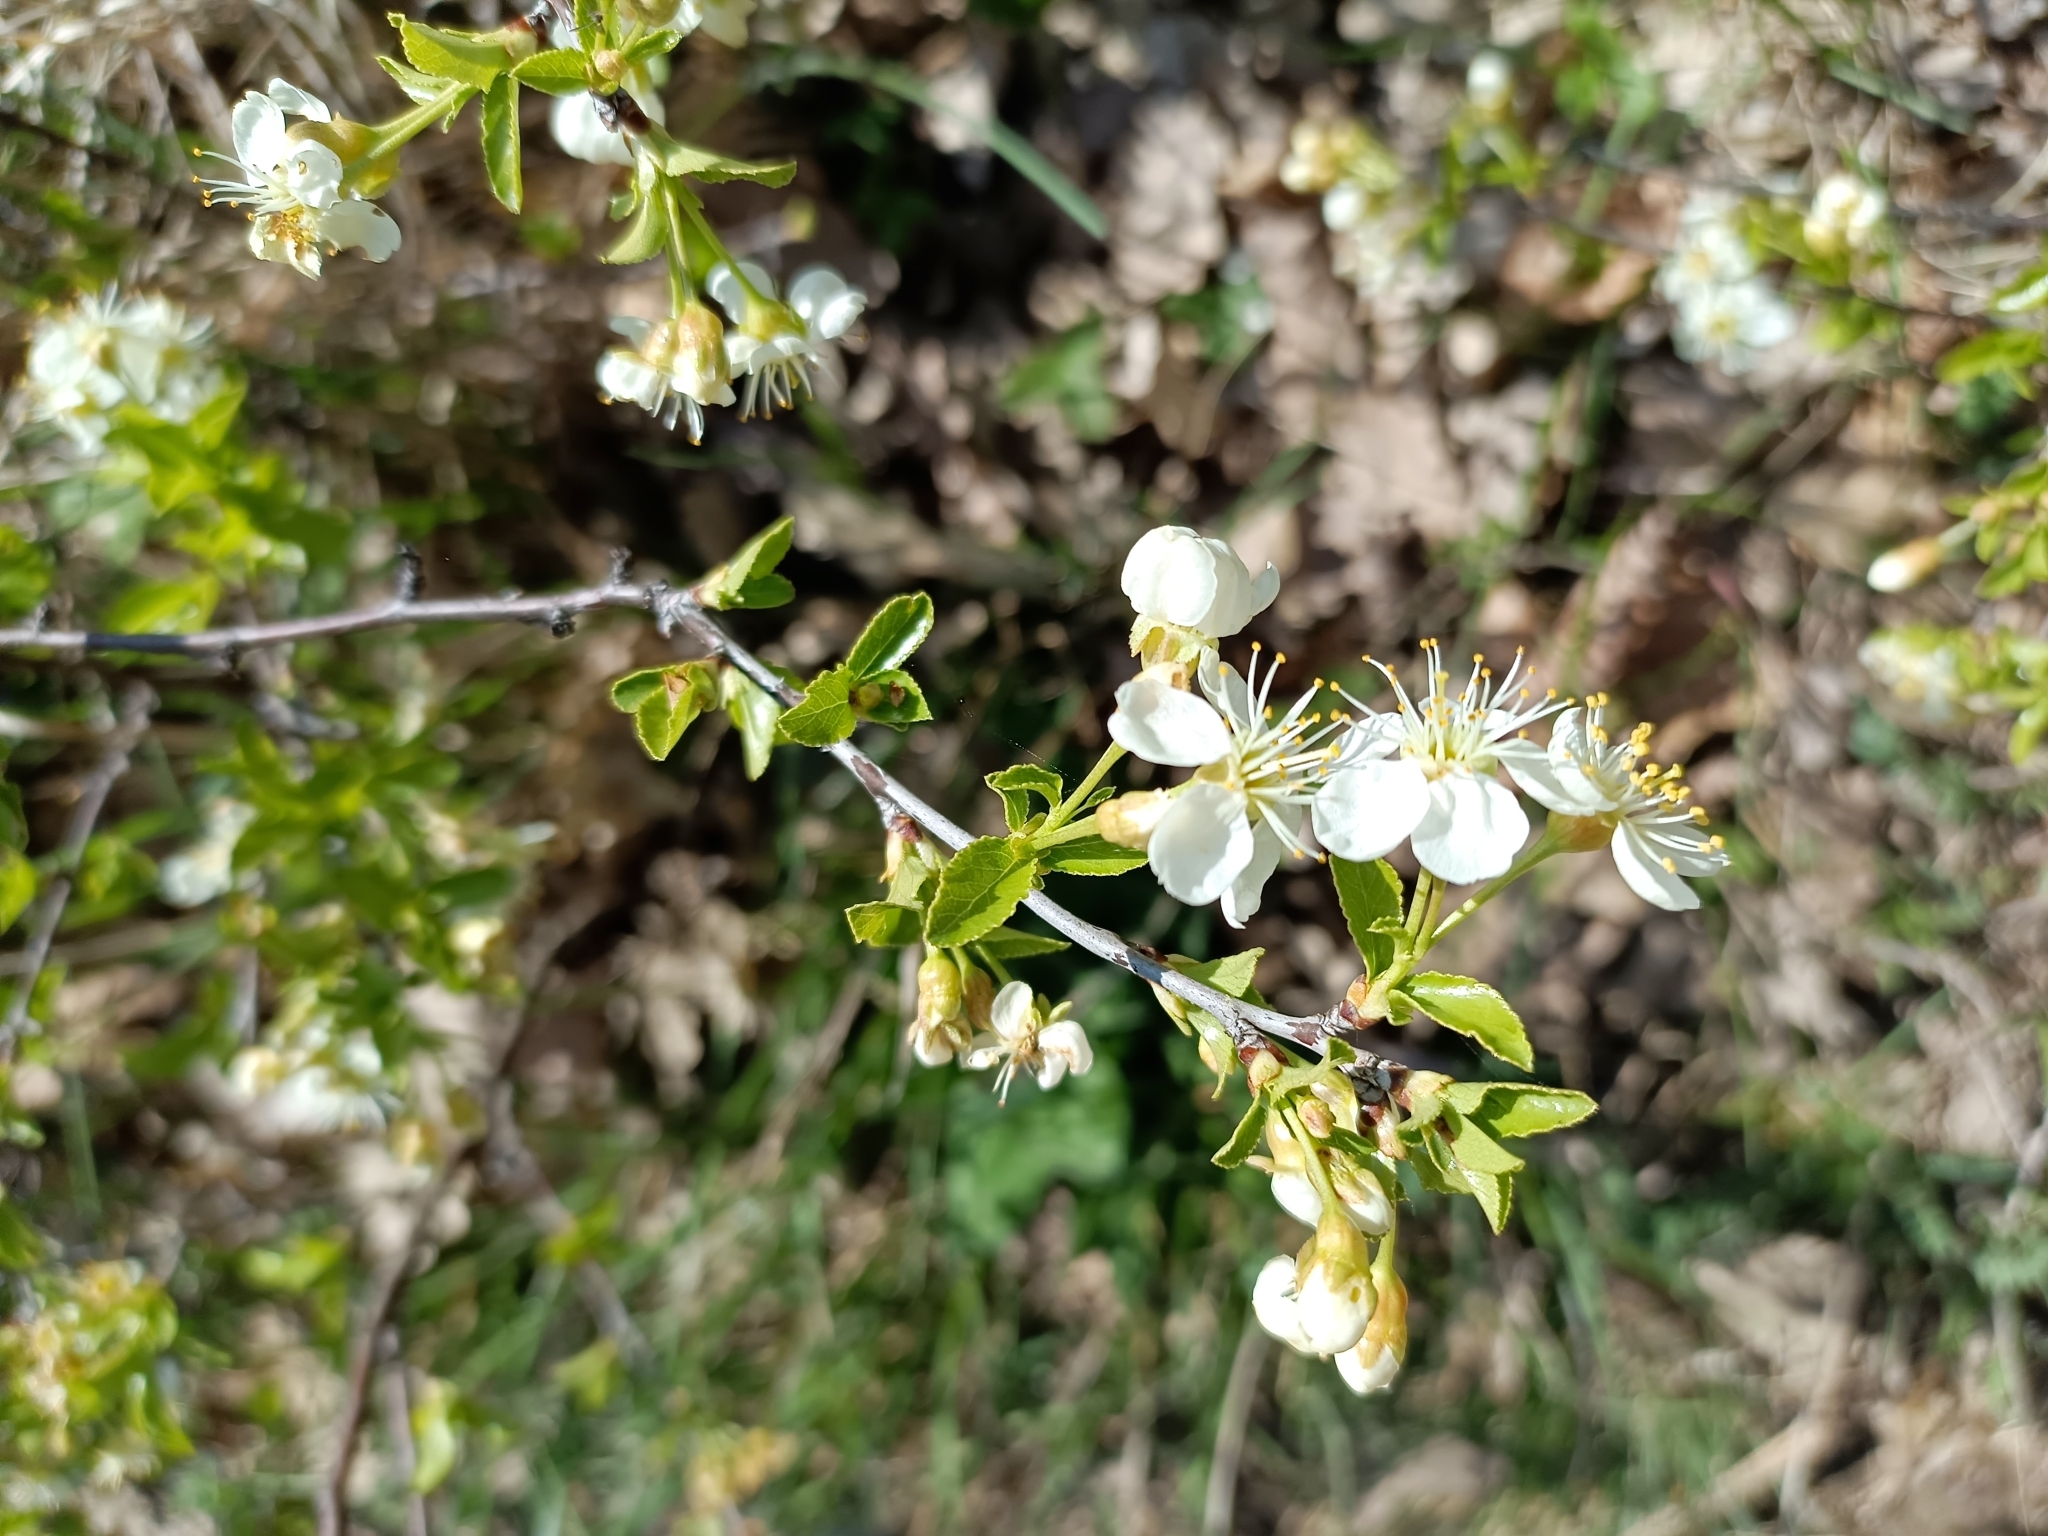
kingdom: Plantae
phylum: Tracheophyta
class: Magnoliopsida
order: Rosales
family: Rosaceae
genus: Prunus
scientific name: Prunus fruticosa
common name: European dwarf cherry
